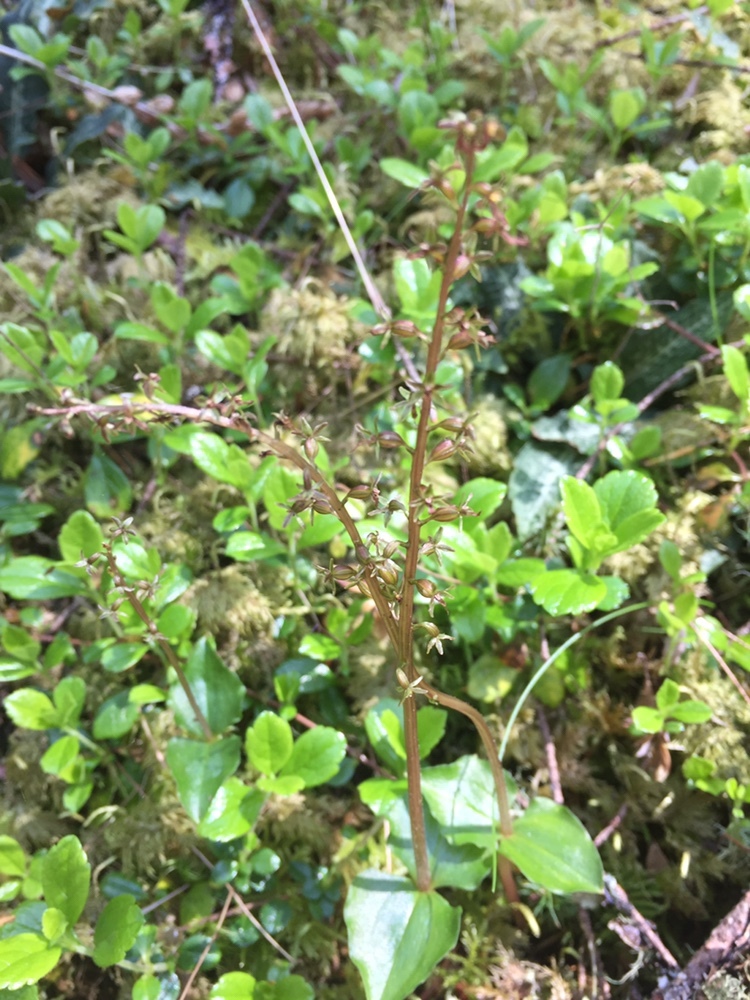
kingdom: Plantae
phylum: Tracheophyta
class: Liliopsida
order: Asparagales
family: Orchidaceae
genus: Neottia
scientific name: Neottia cordata
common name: Lesser twayblade
